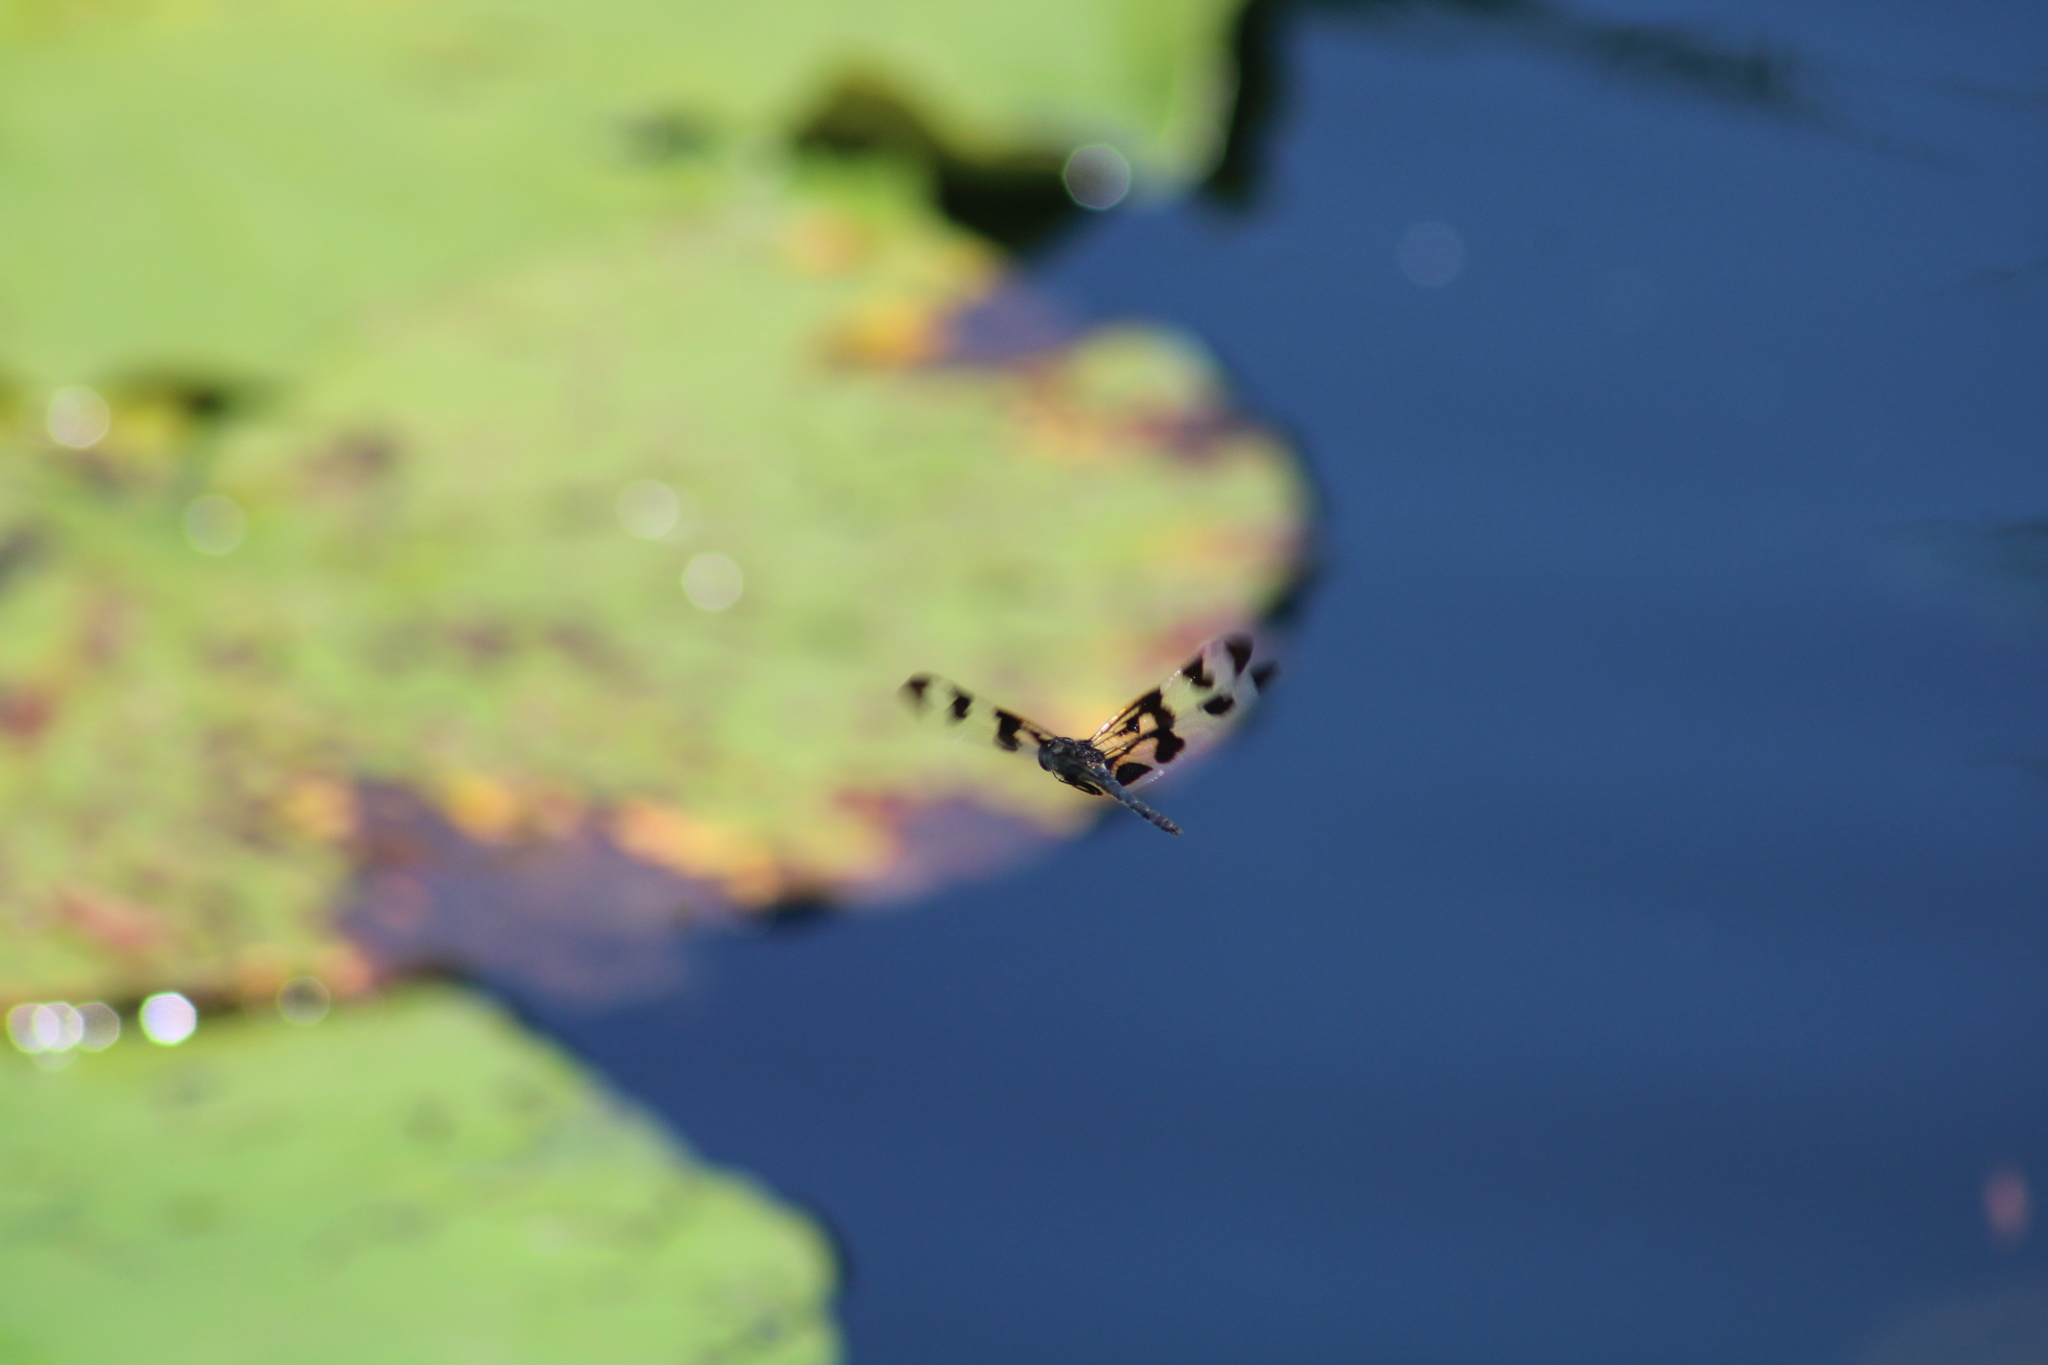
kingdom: Animalia
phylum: Arthropoda
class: Insecta
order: Odonata
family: Libellulidae
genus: Celithemis
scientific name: Celithemis fasciata
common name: Banded pennant
